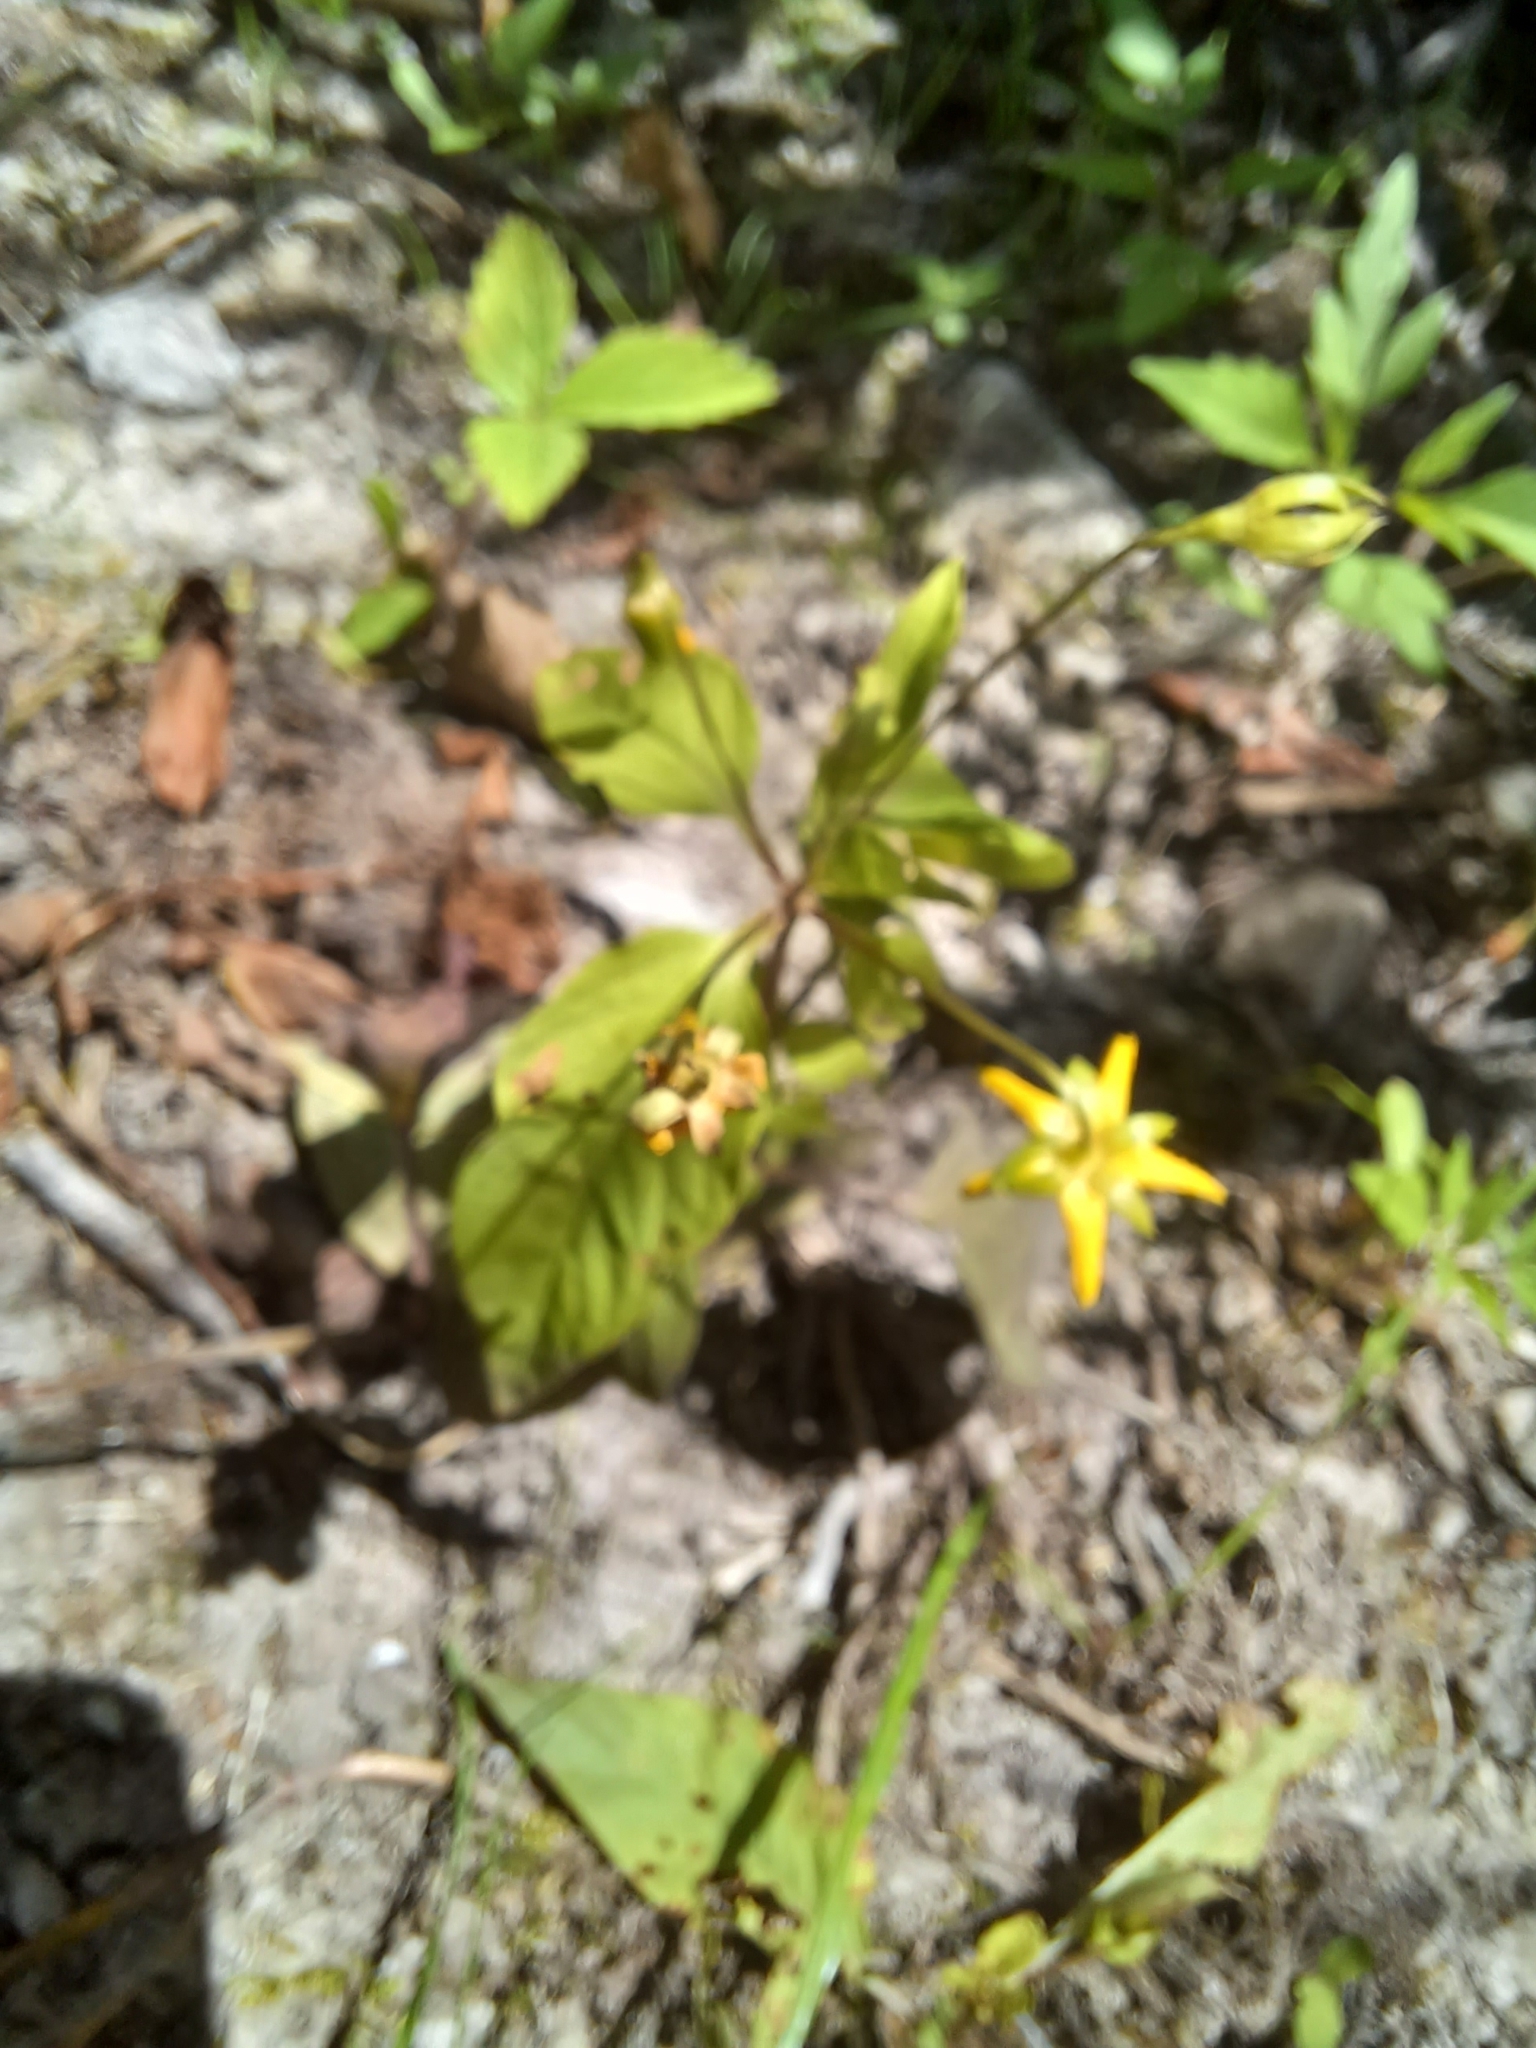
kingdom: Plantae
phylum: Tracheophyta
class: Magnoliopsida
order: Ericales
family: Primulaceae
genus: Lysimachia
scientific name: Lysimachia ciliata
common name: Fringed loosestrife
